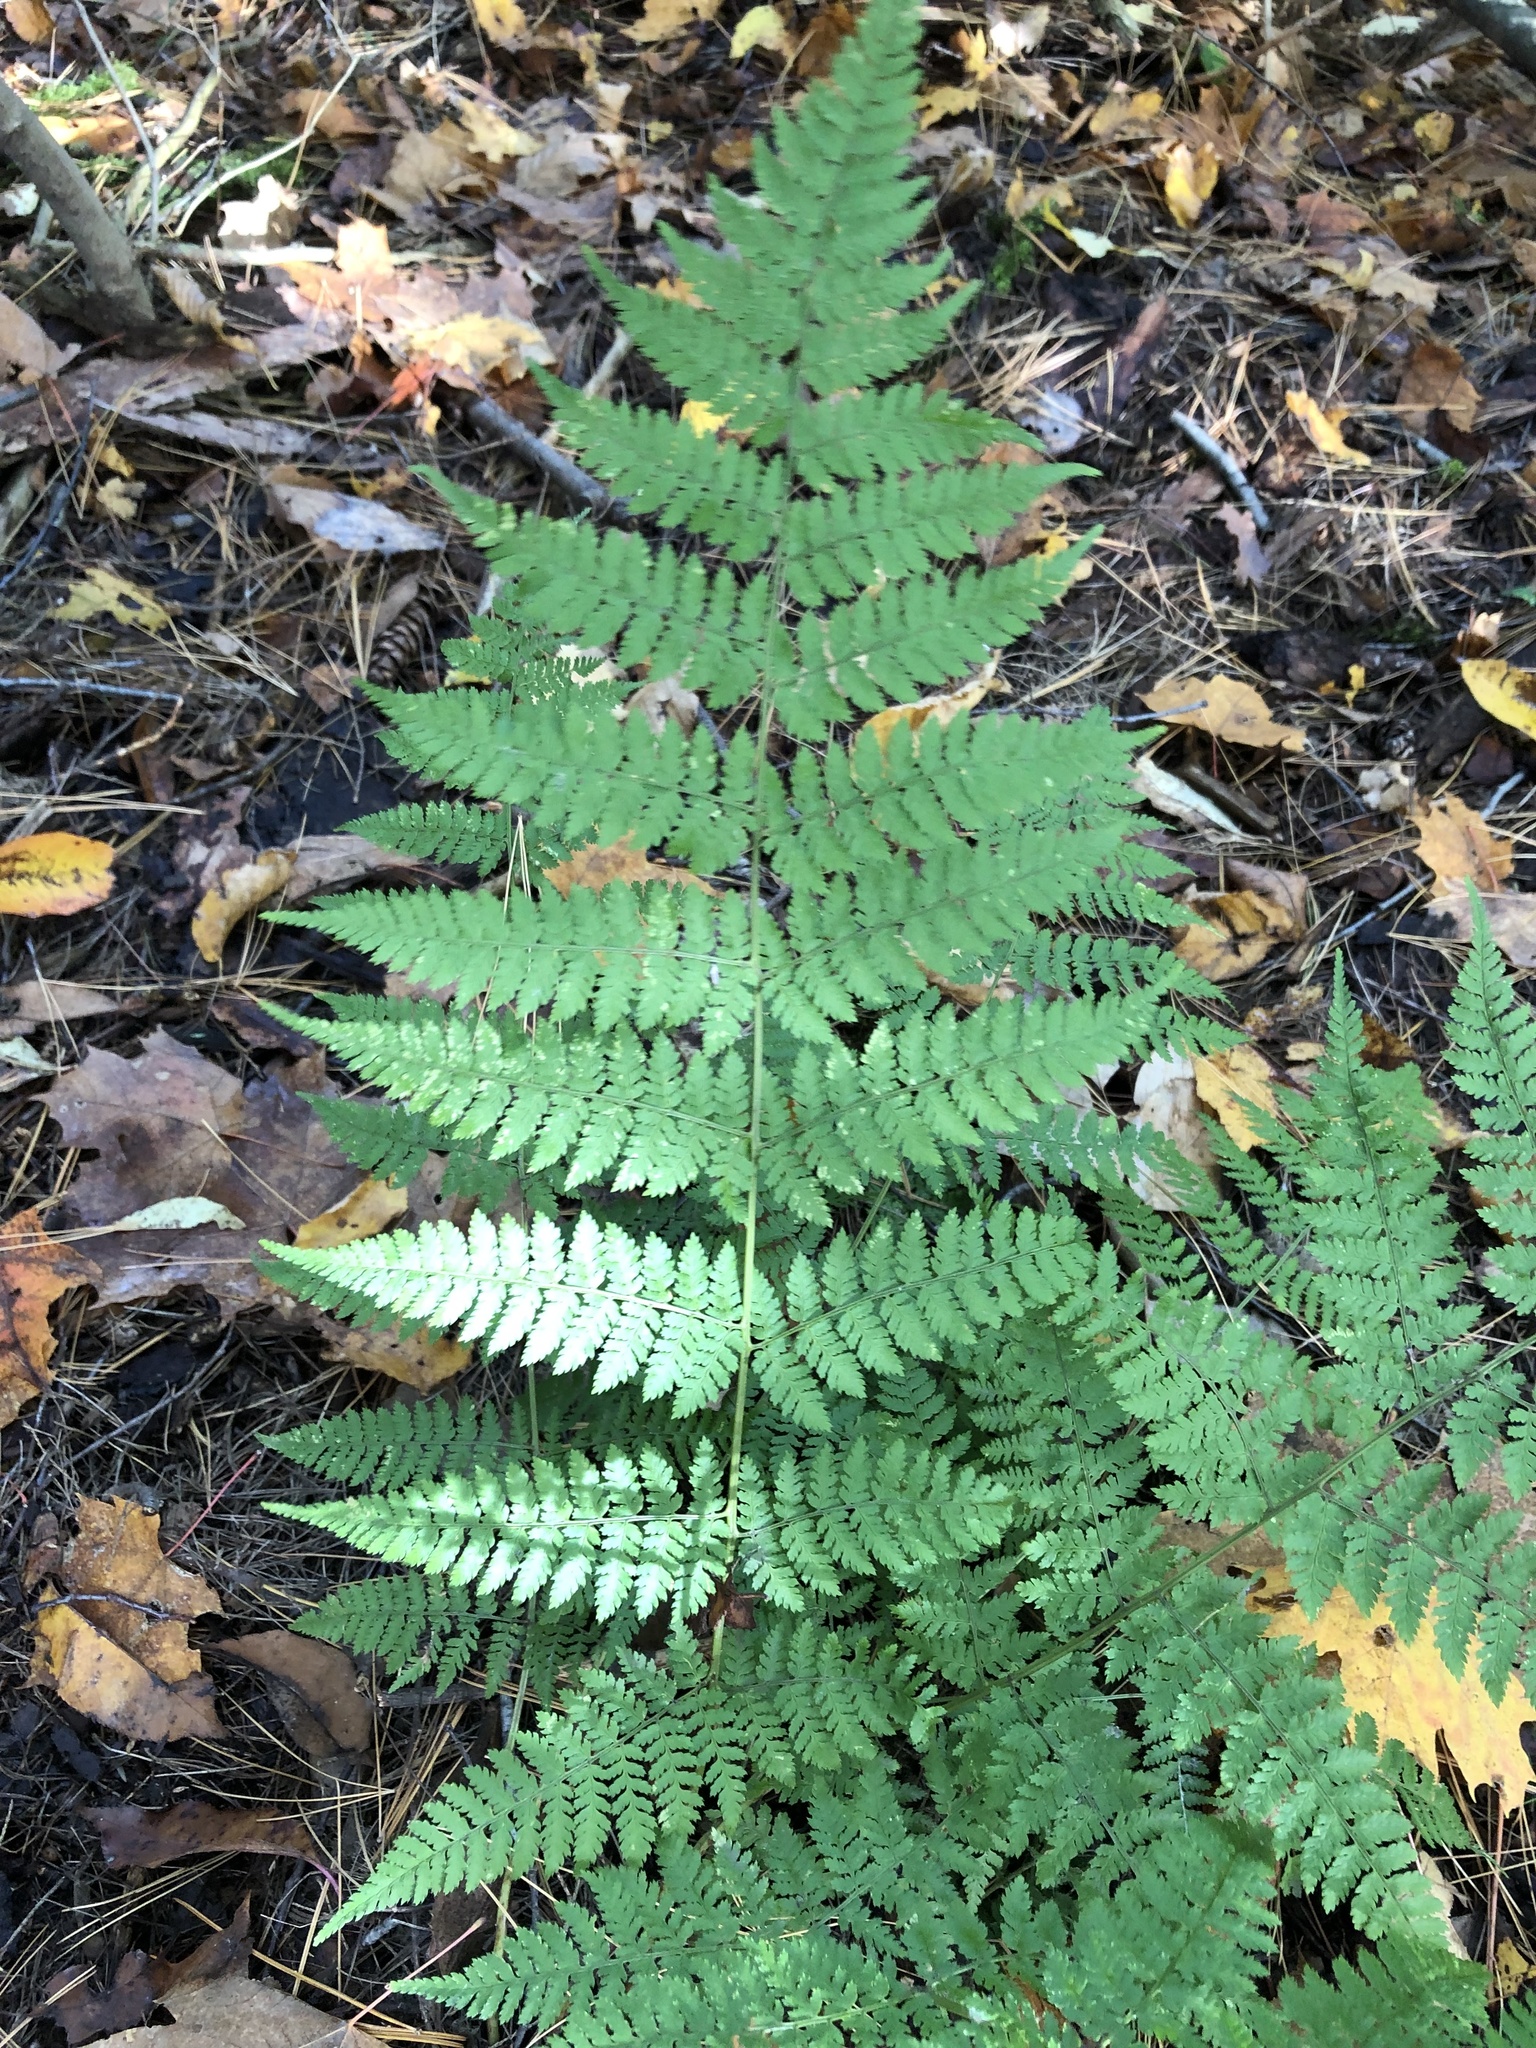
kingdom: Plantae
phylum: Tracheophyta
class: Polypodiopsida
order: Polypodiales
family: Dryopteridaceae
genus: Dryopteris
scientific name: Dryopteris intermedia
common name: Evergreen wood fern
